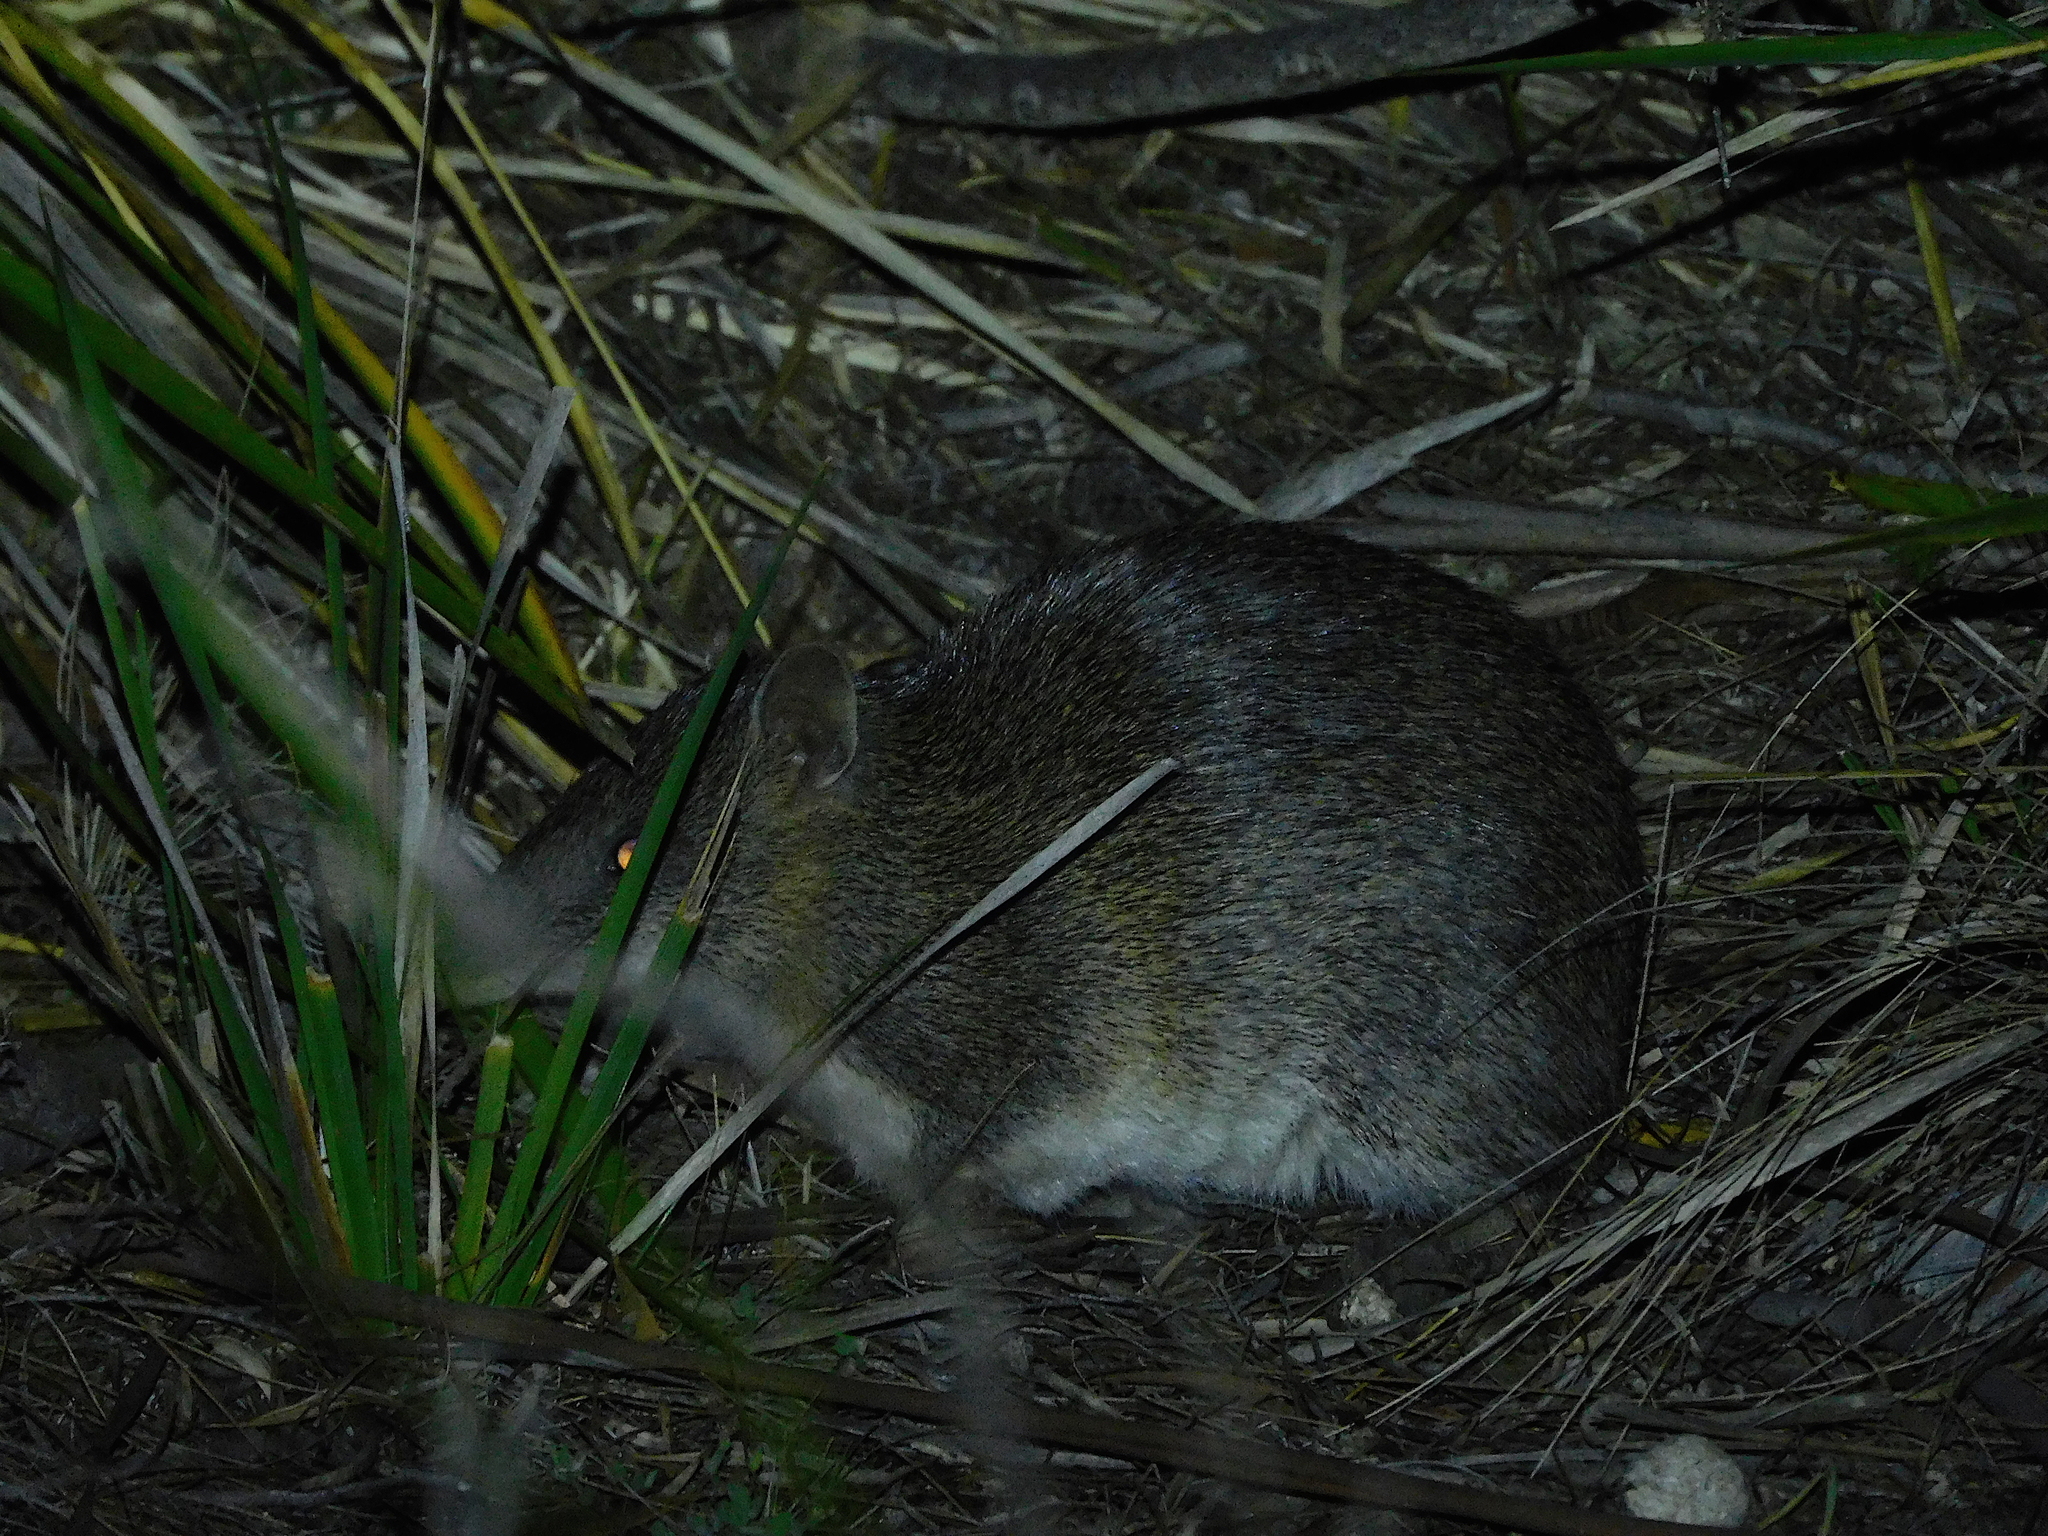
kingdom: Animalia
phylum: Chordata
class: Mammalia
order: Peramelemorphia
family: Peramelidae
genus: Isoodon
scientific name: Isoodon obesulus
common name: Southern brown bandicoot
